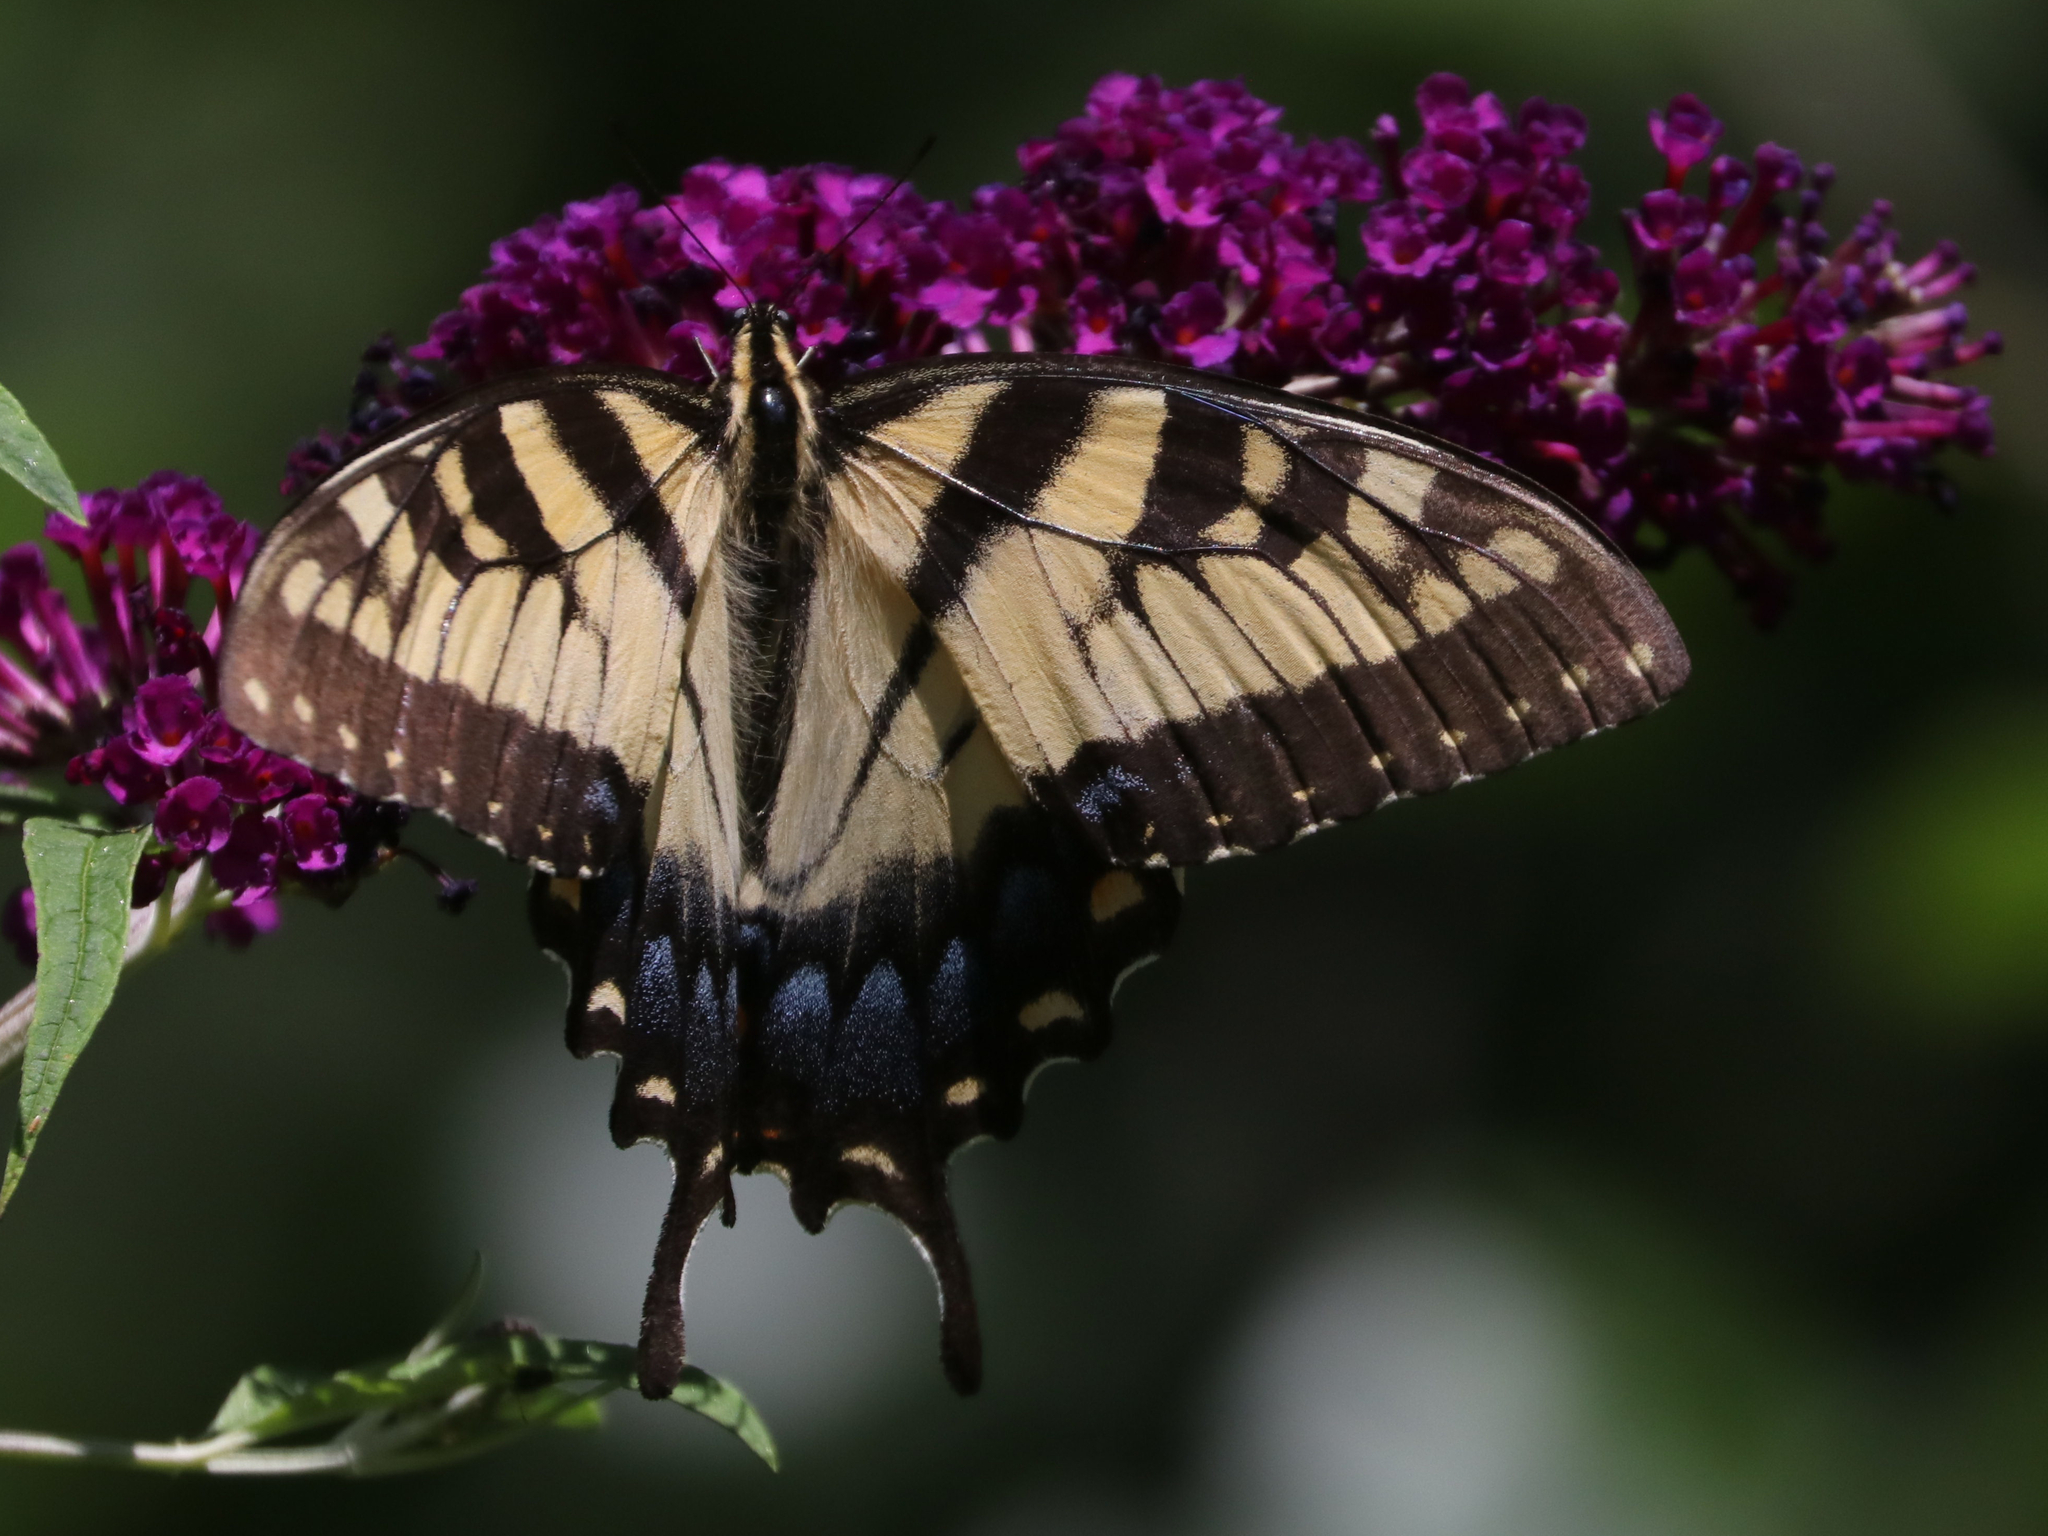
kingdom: Animalia
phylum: Arthropoda
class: Insecta
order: Lepidoptera
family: Papilionidae
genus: Papilio
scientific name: Papilio glaucus
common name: Tiger swallowtail
